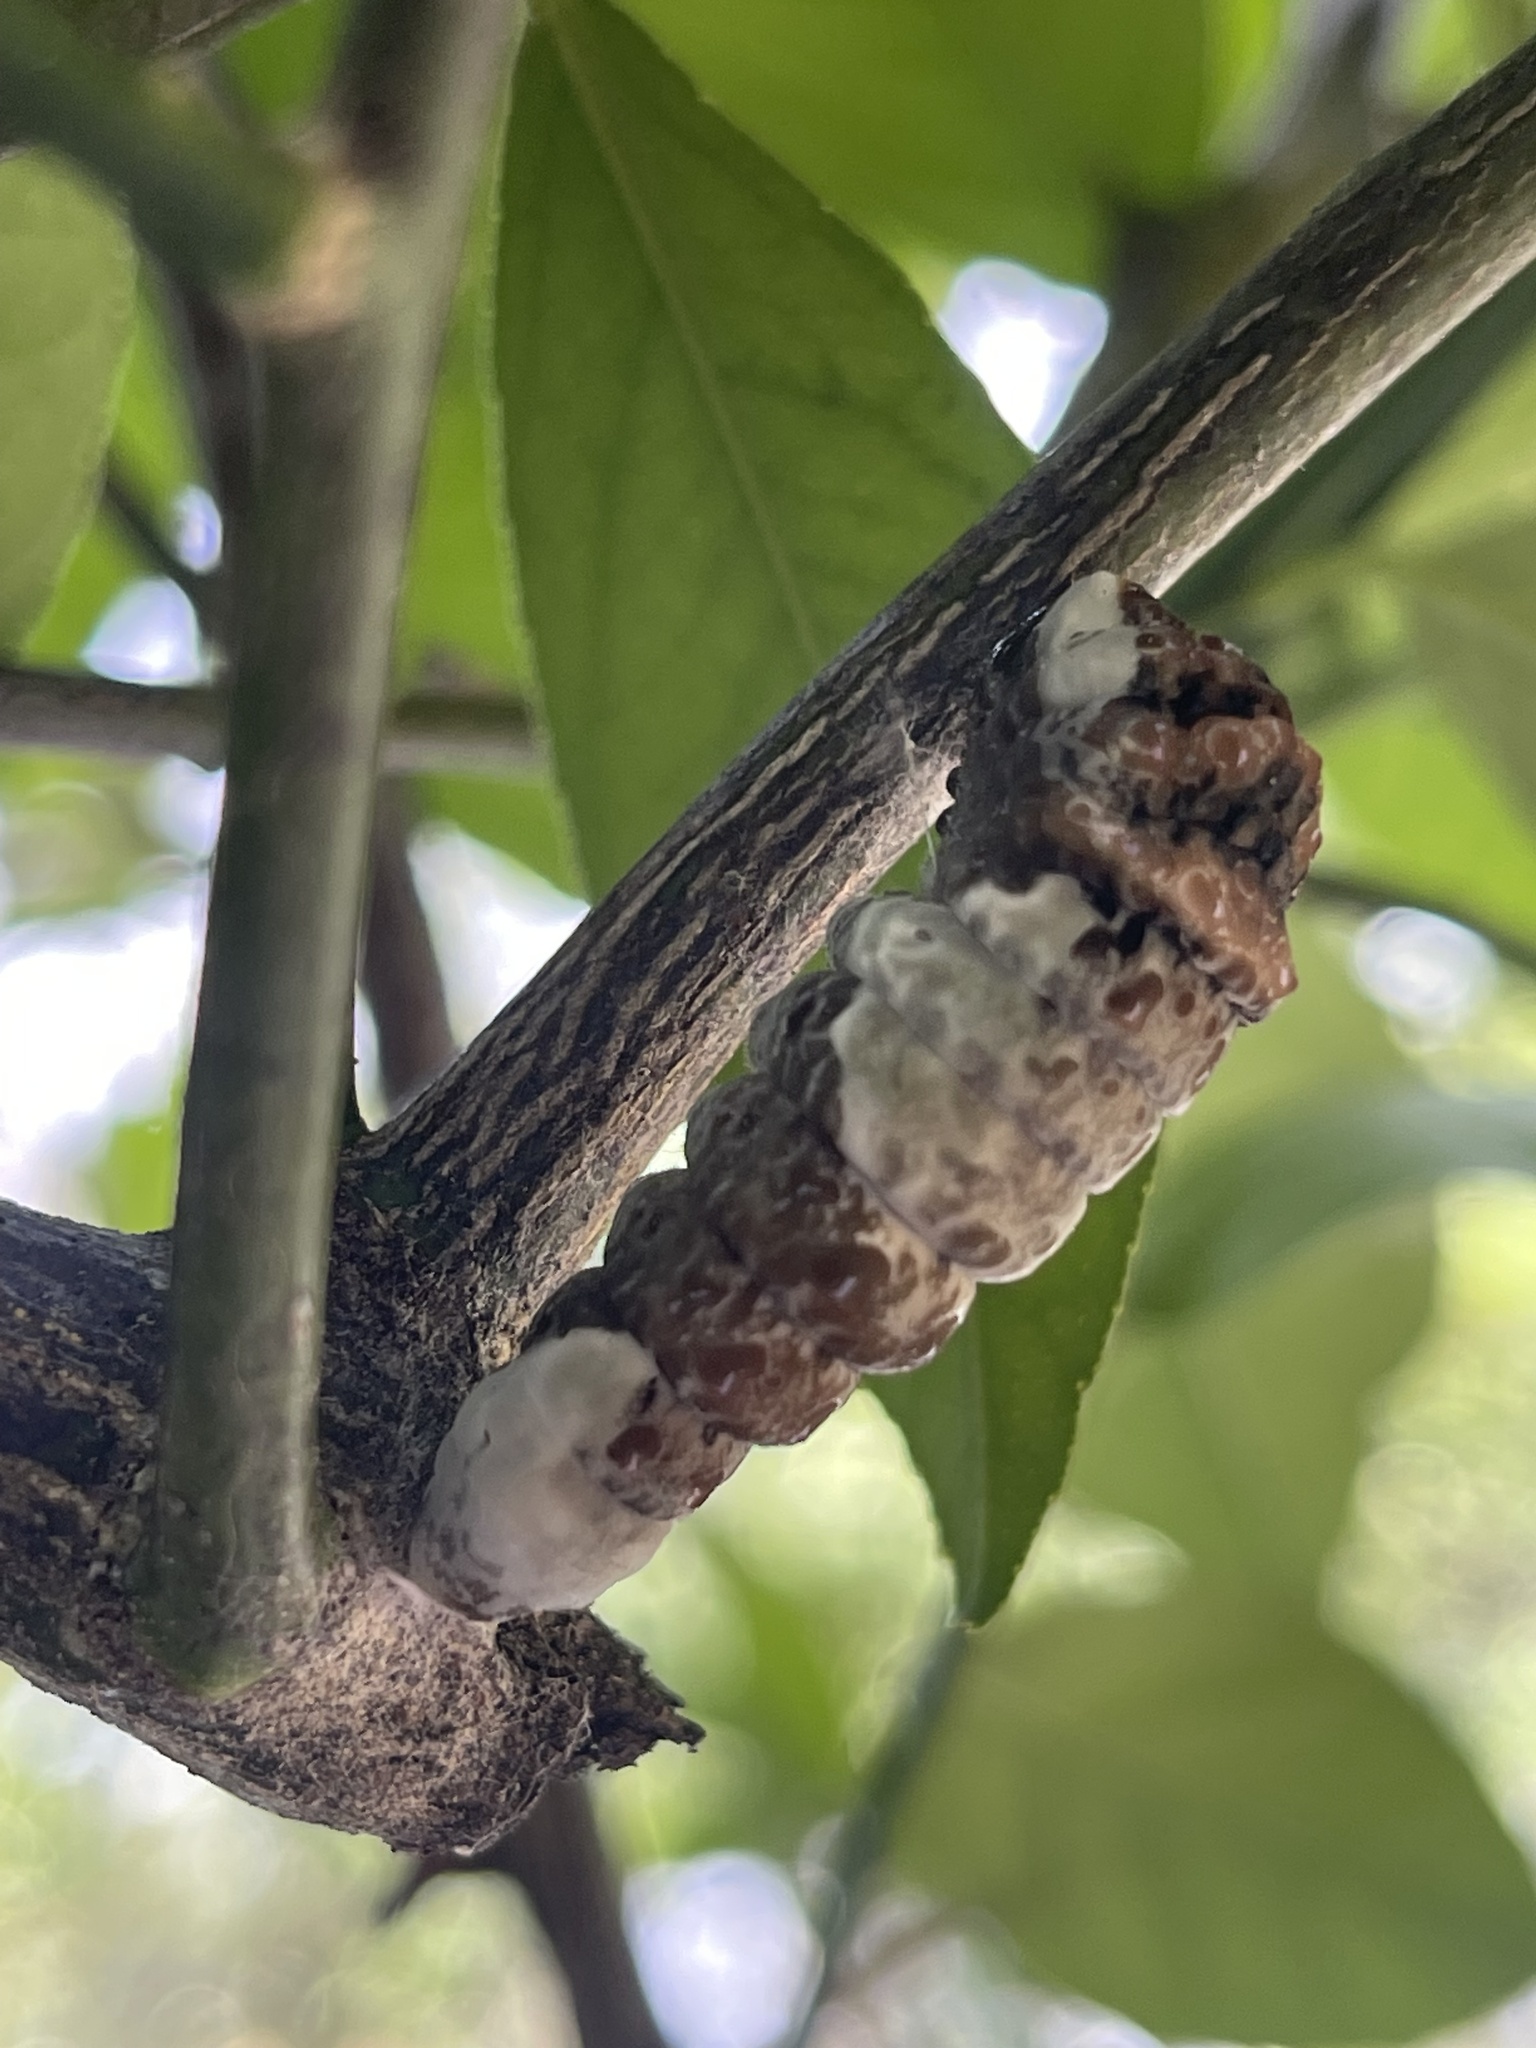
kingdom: Animalia
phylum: Arthropoda
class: Insecta
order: Lepidoptera
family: Papilionidae
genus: Papilio
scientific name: Papilio cresphontes
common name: Giant swallowtail
